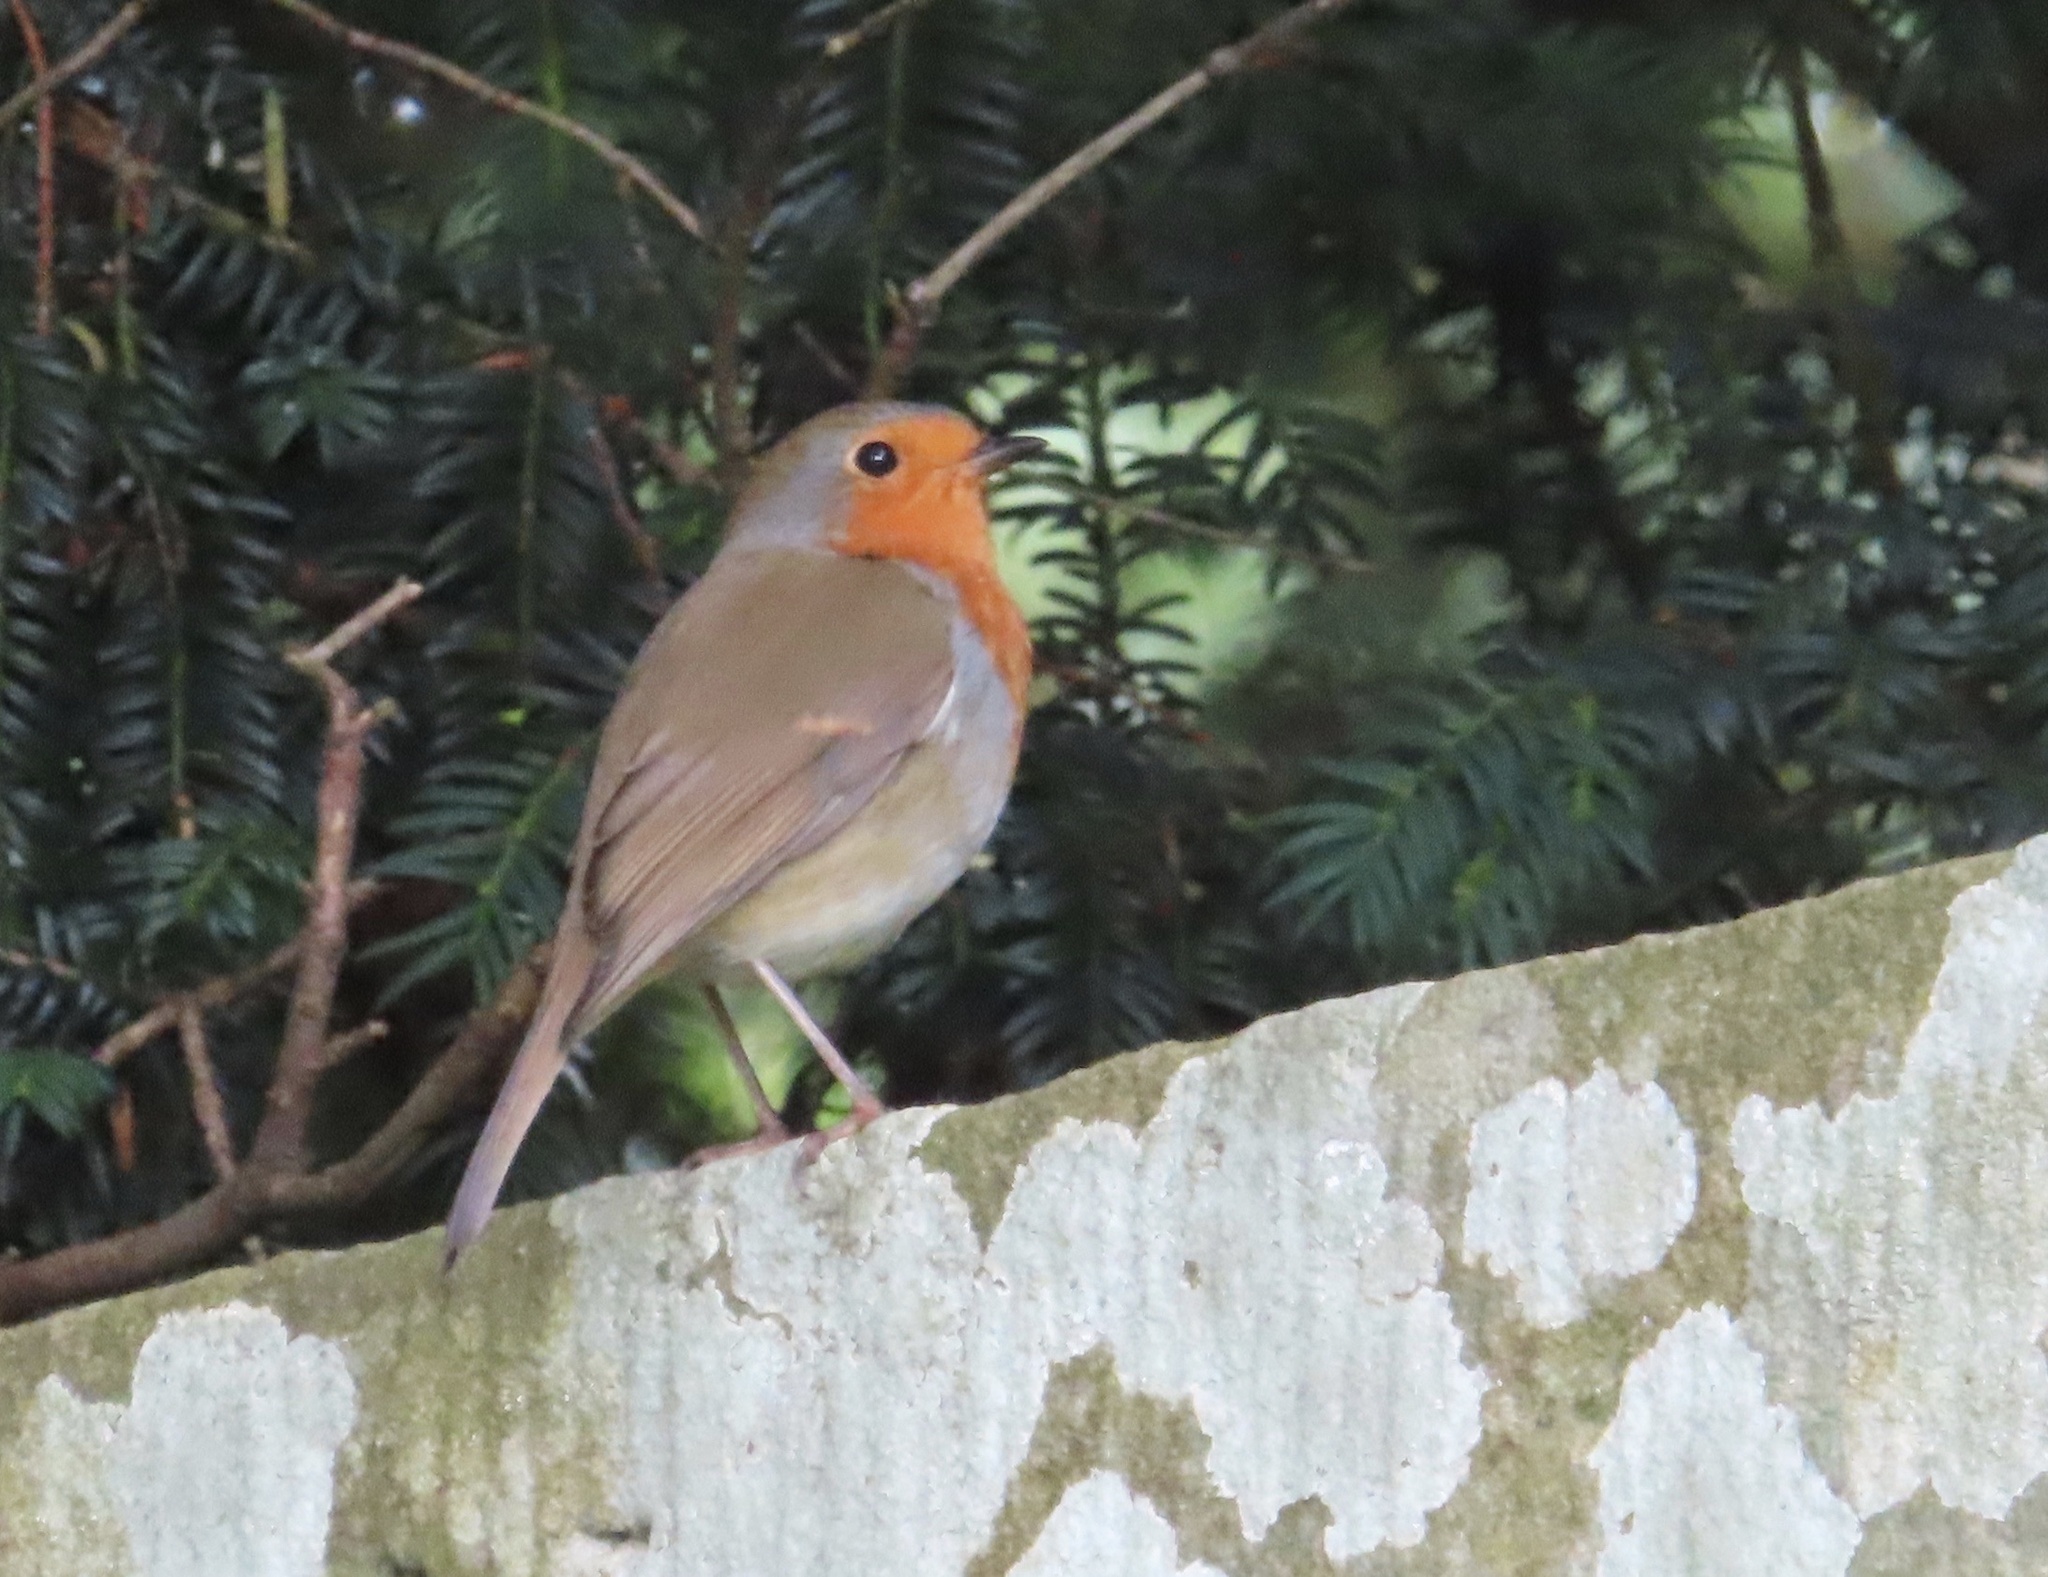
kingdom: Animalia
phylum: Chordata
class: Aves
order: Passeriformes
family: Muscicapidae
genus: Erithacus
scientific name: Erithacus rubecula
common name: European robin
